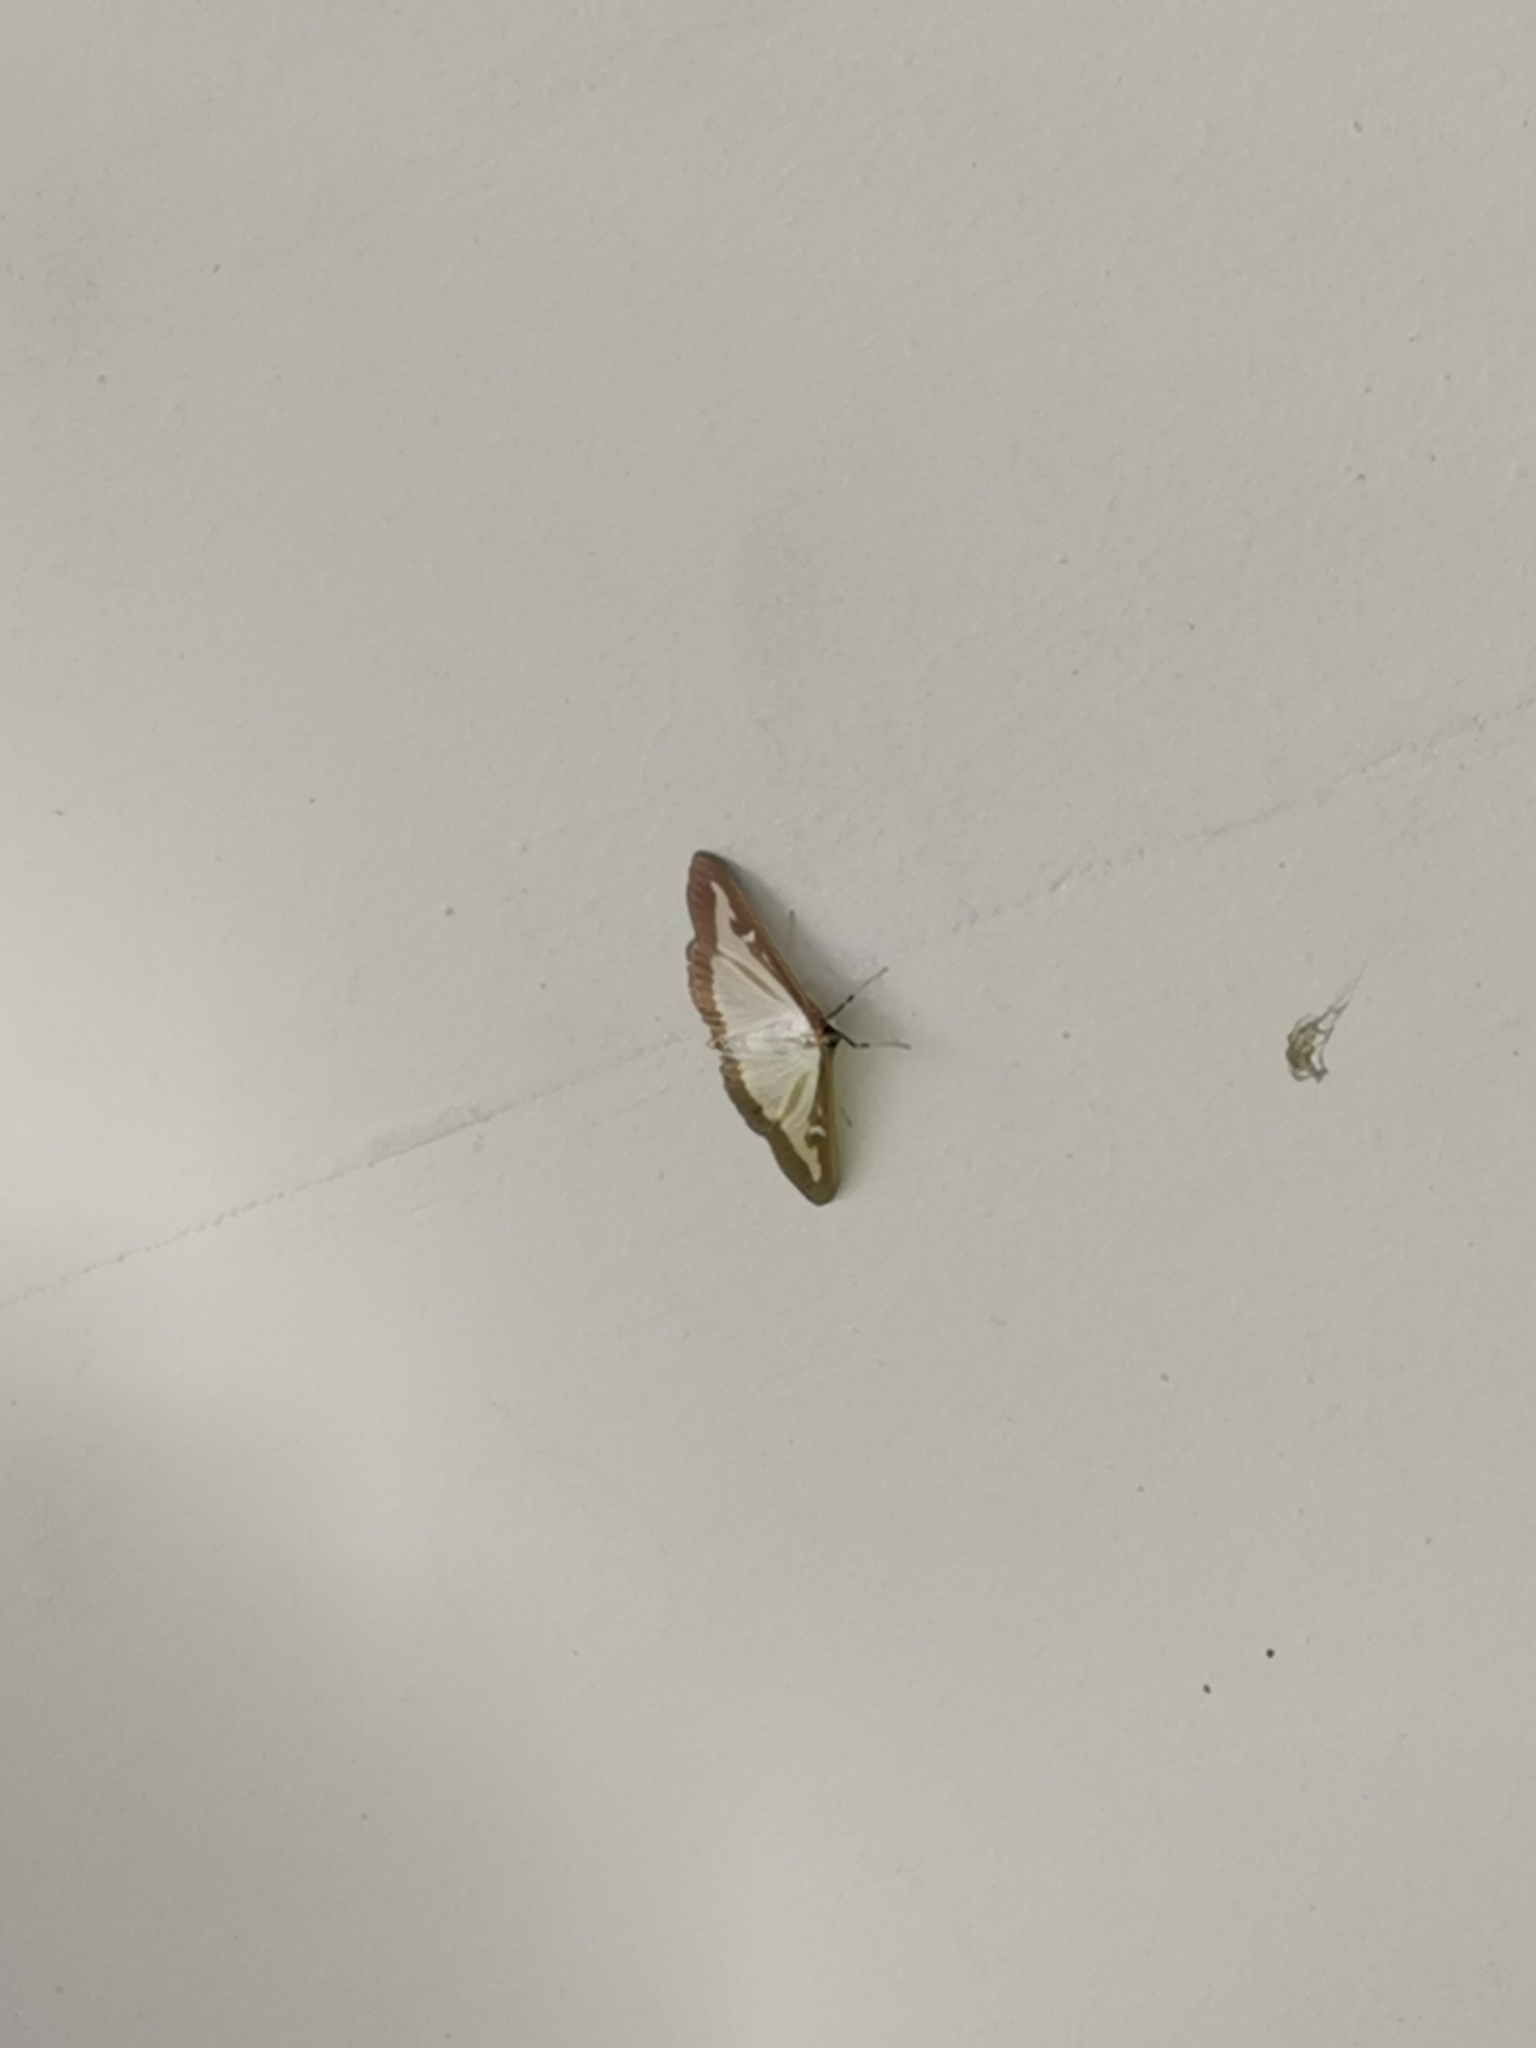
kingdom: Animalia
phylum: Arthropoda
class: Insecta
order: Lepidoptera
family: Crambidae
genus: Cydalima
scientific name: Cydalima perspectalis
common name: Box tree moth
